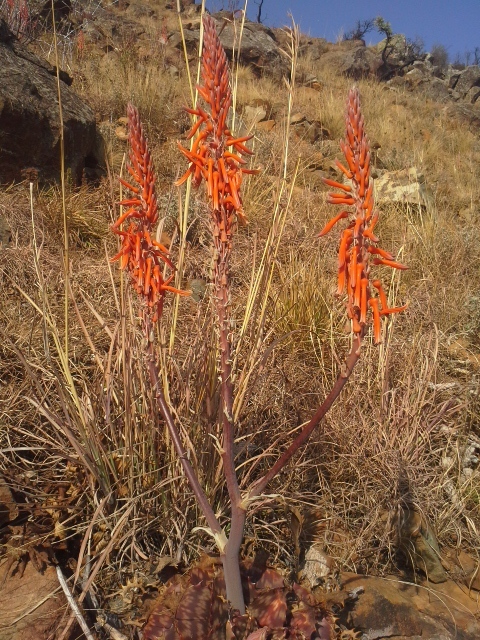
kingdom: Plantae
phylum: Tracheophyta
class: Liliopsida
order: Asparagales
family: Asphodelaceae
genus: Aloe
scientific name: Aloe longibracteata
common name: Limpopo spotted aloe
